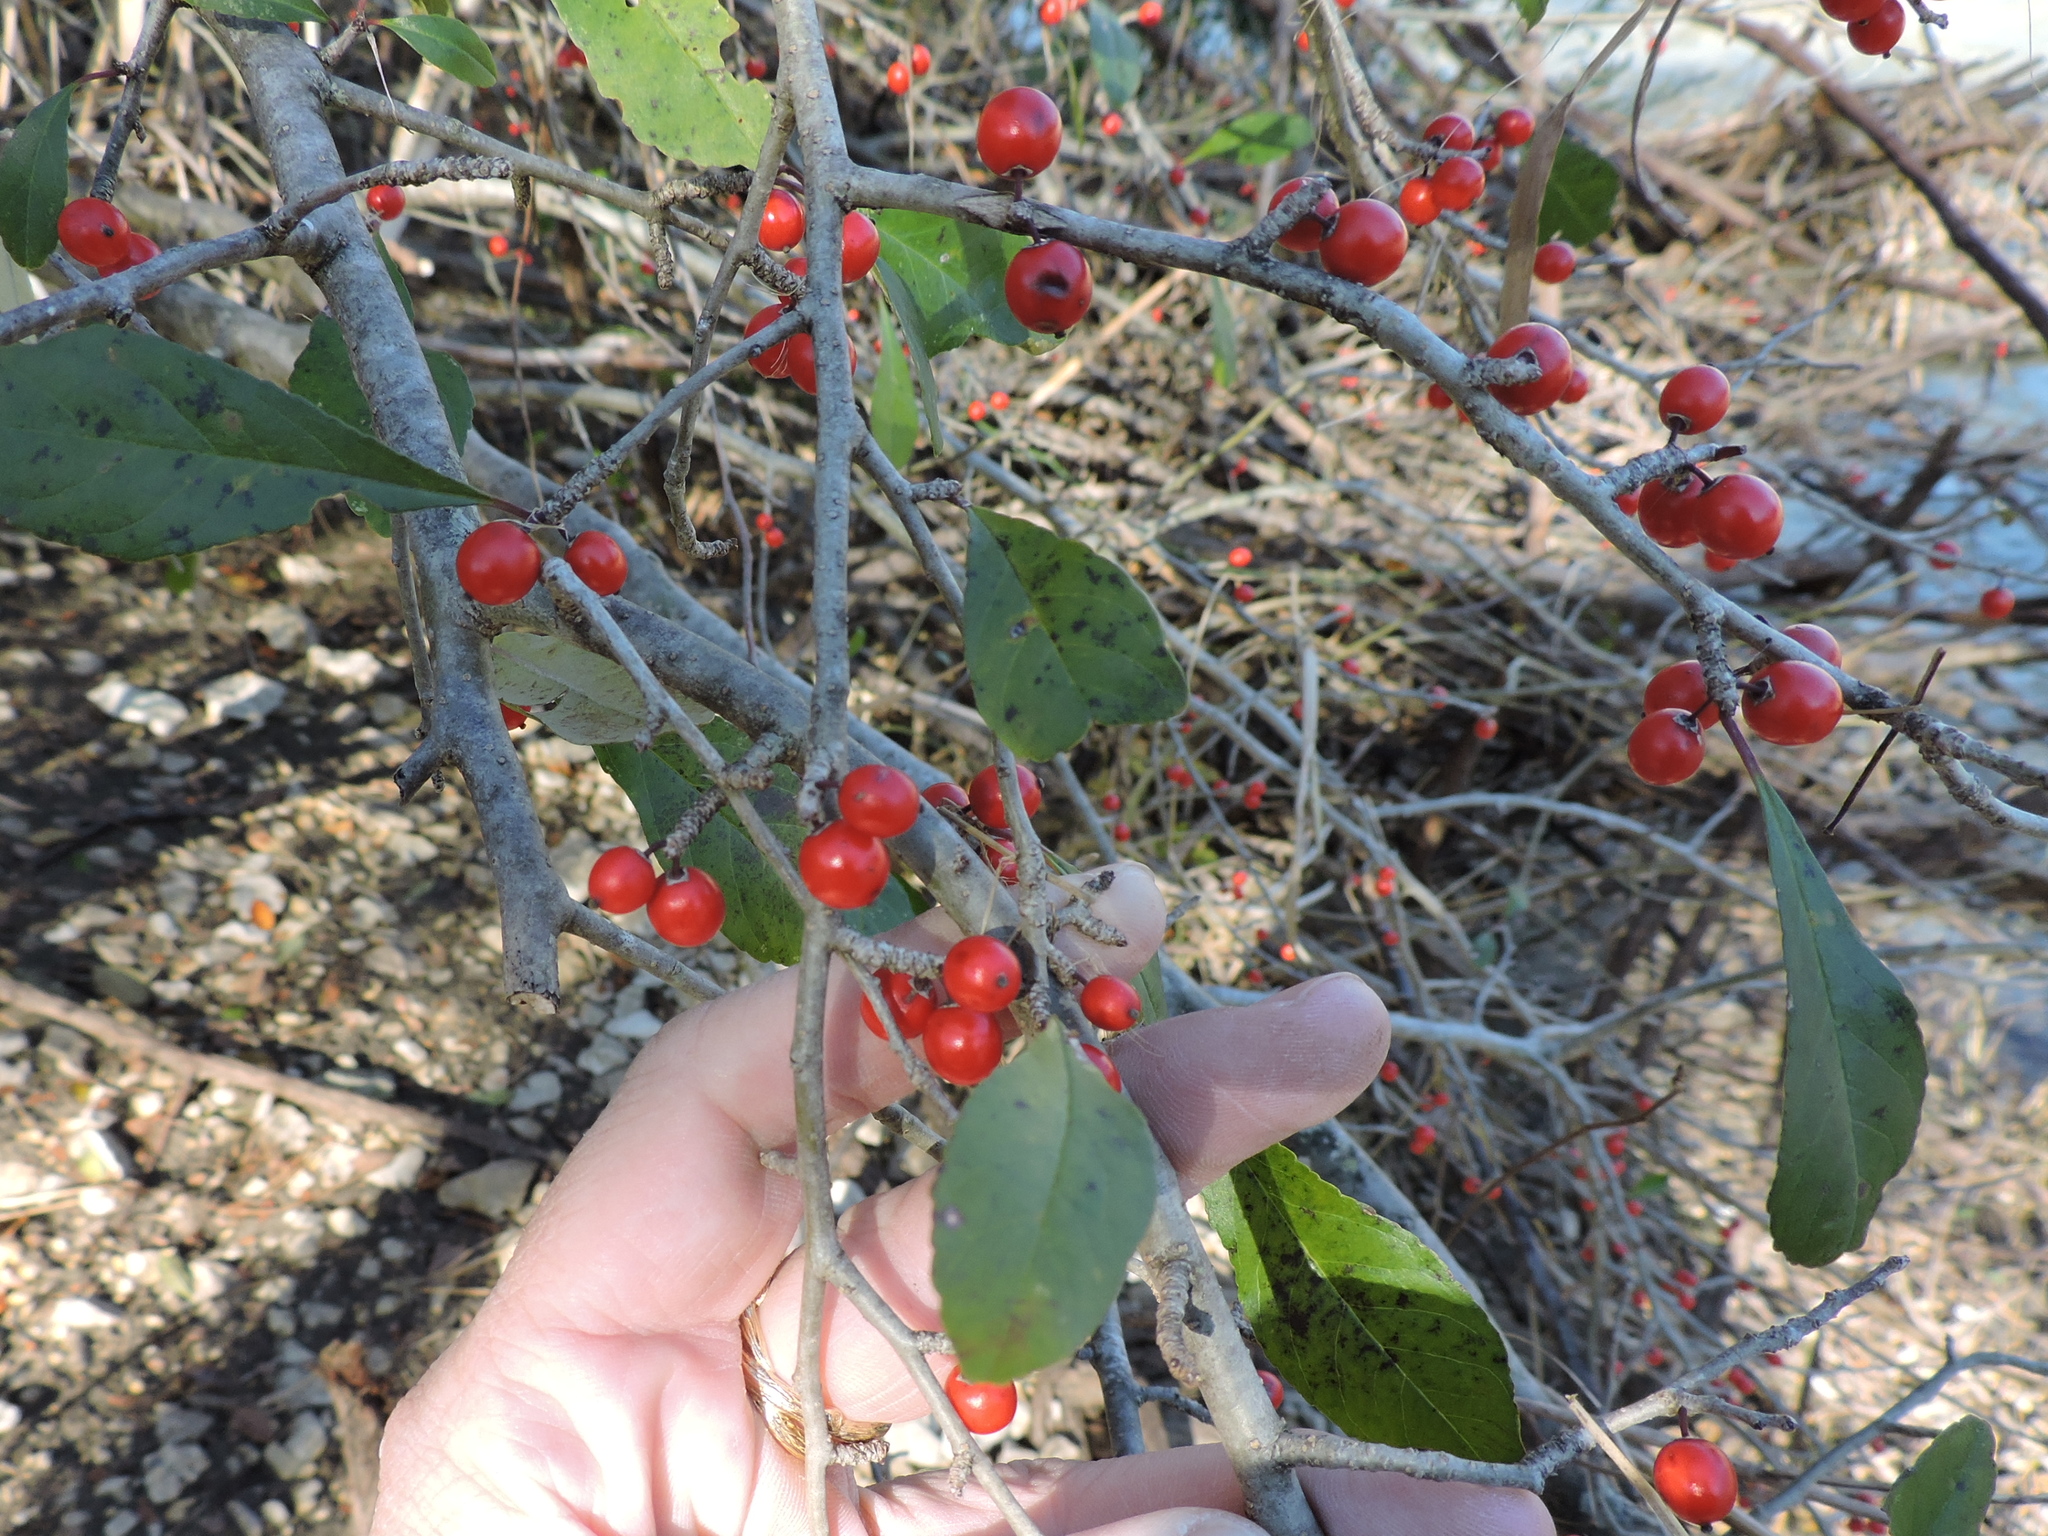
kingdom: Plantae
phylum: Tracheophyta
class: Magnoliopsida
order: Aquifoliales
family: Aquifoliaceae
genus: Ilex
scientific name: Ilex decidua
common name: Possum-haw
